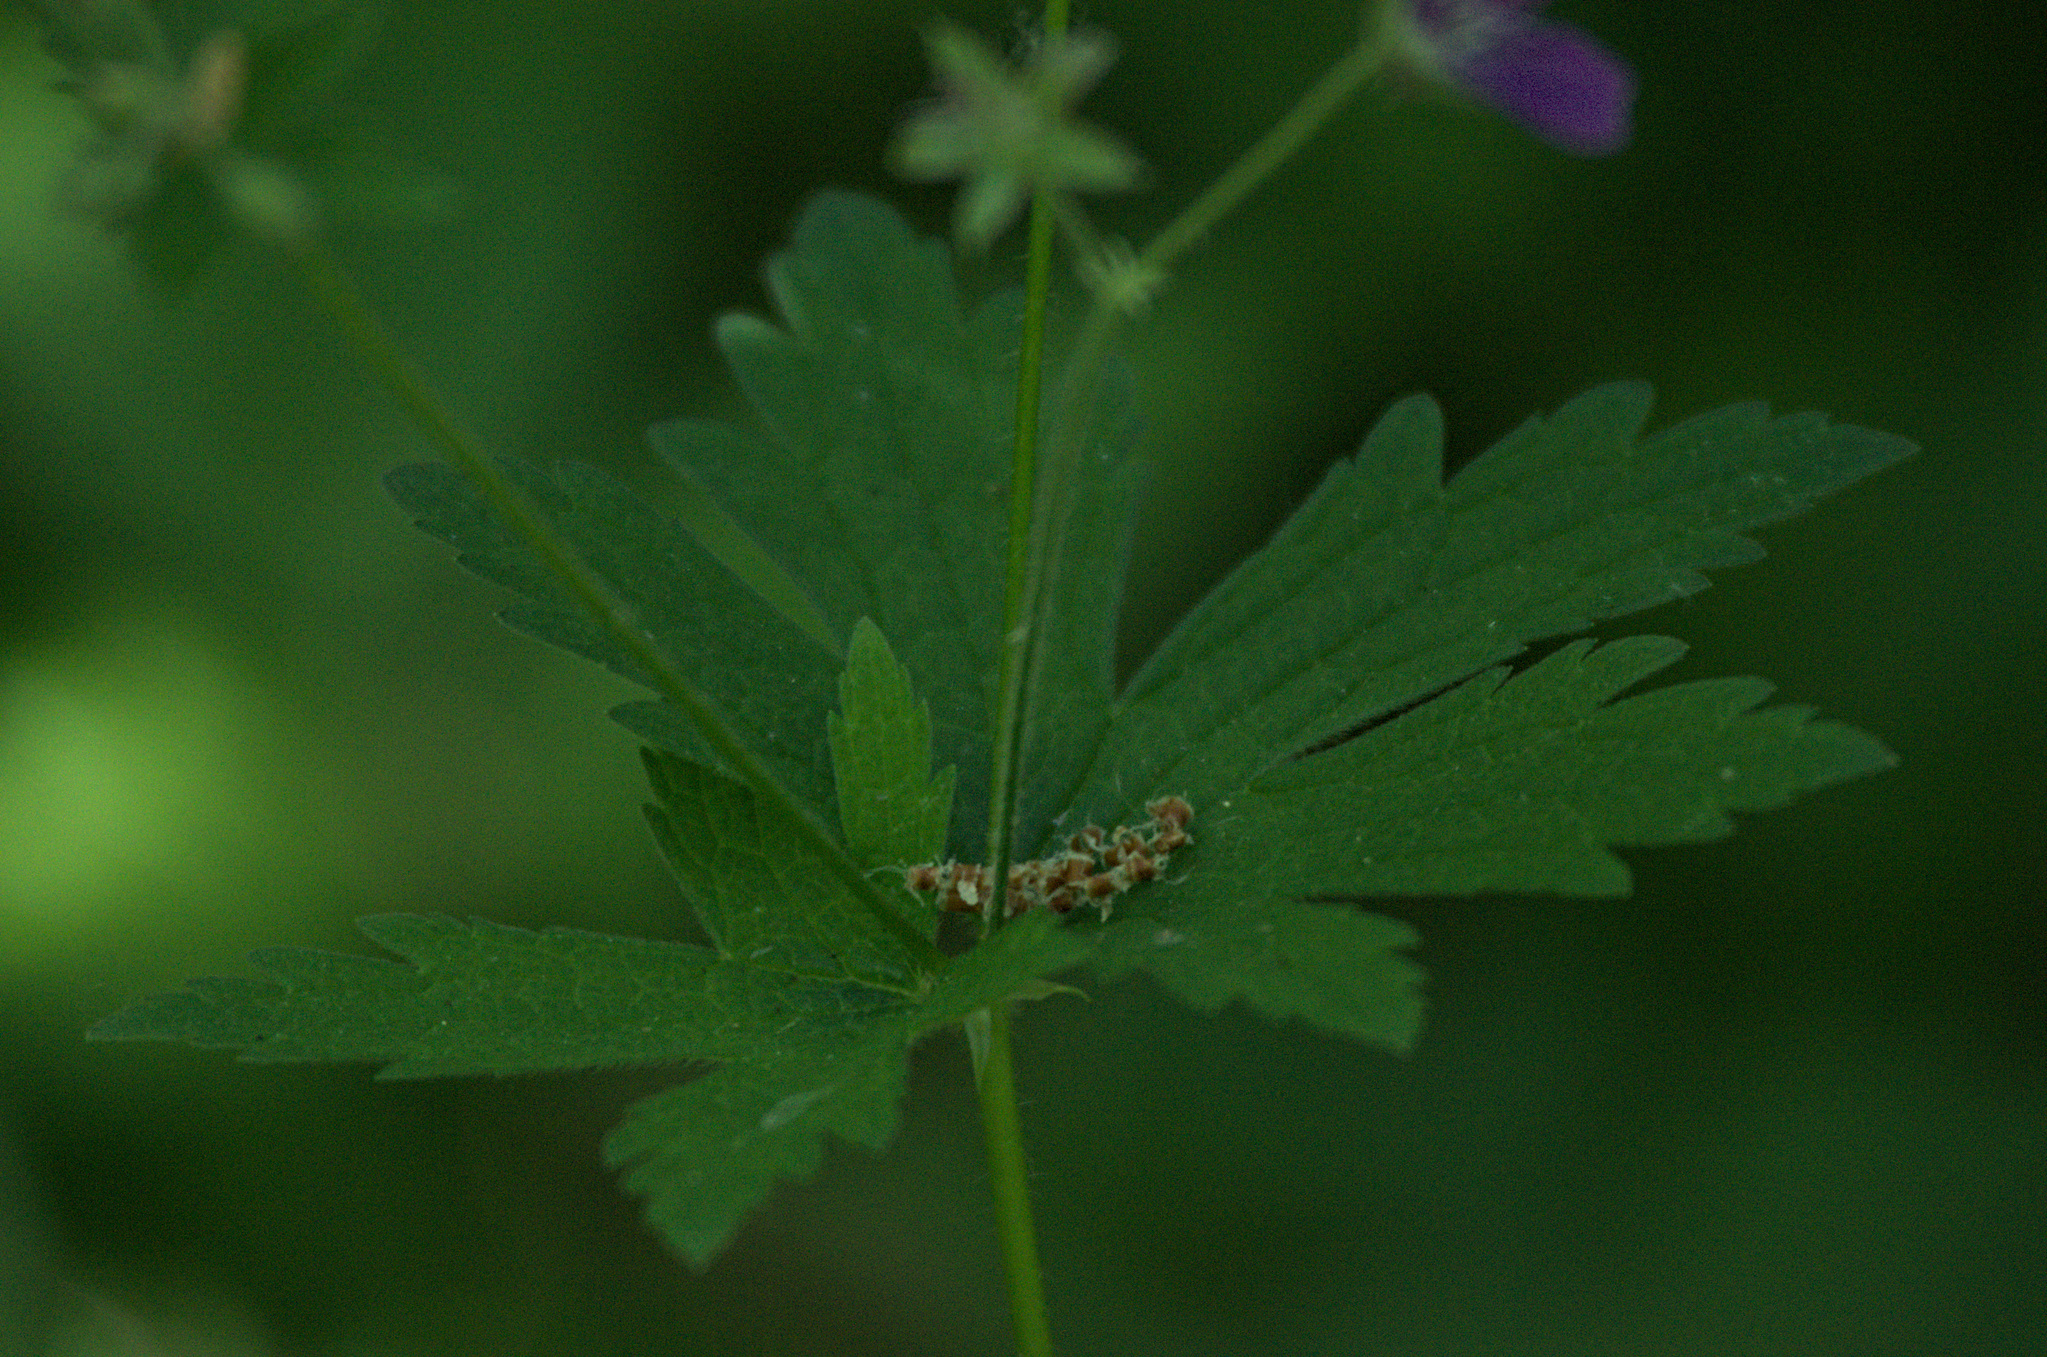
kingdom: Plantae
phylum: Tracheophyta
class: Magnoliopsida
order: Geraniales
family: Geraniaceae
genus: Geranium
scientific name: Geranium sylvaticum
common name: Wood crane's-bill
